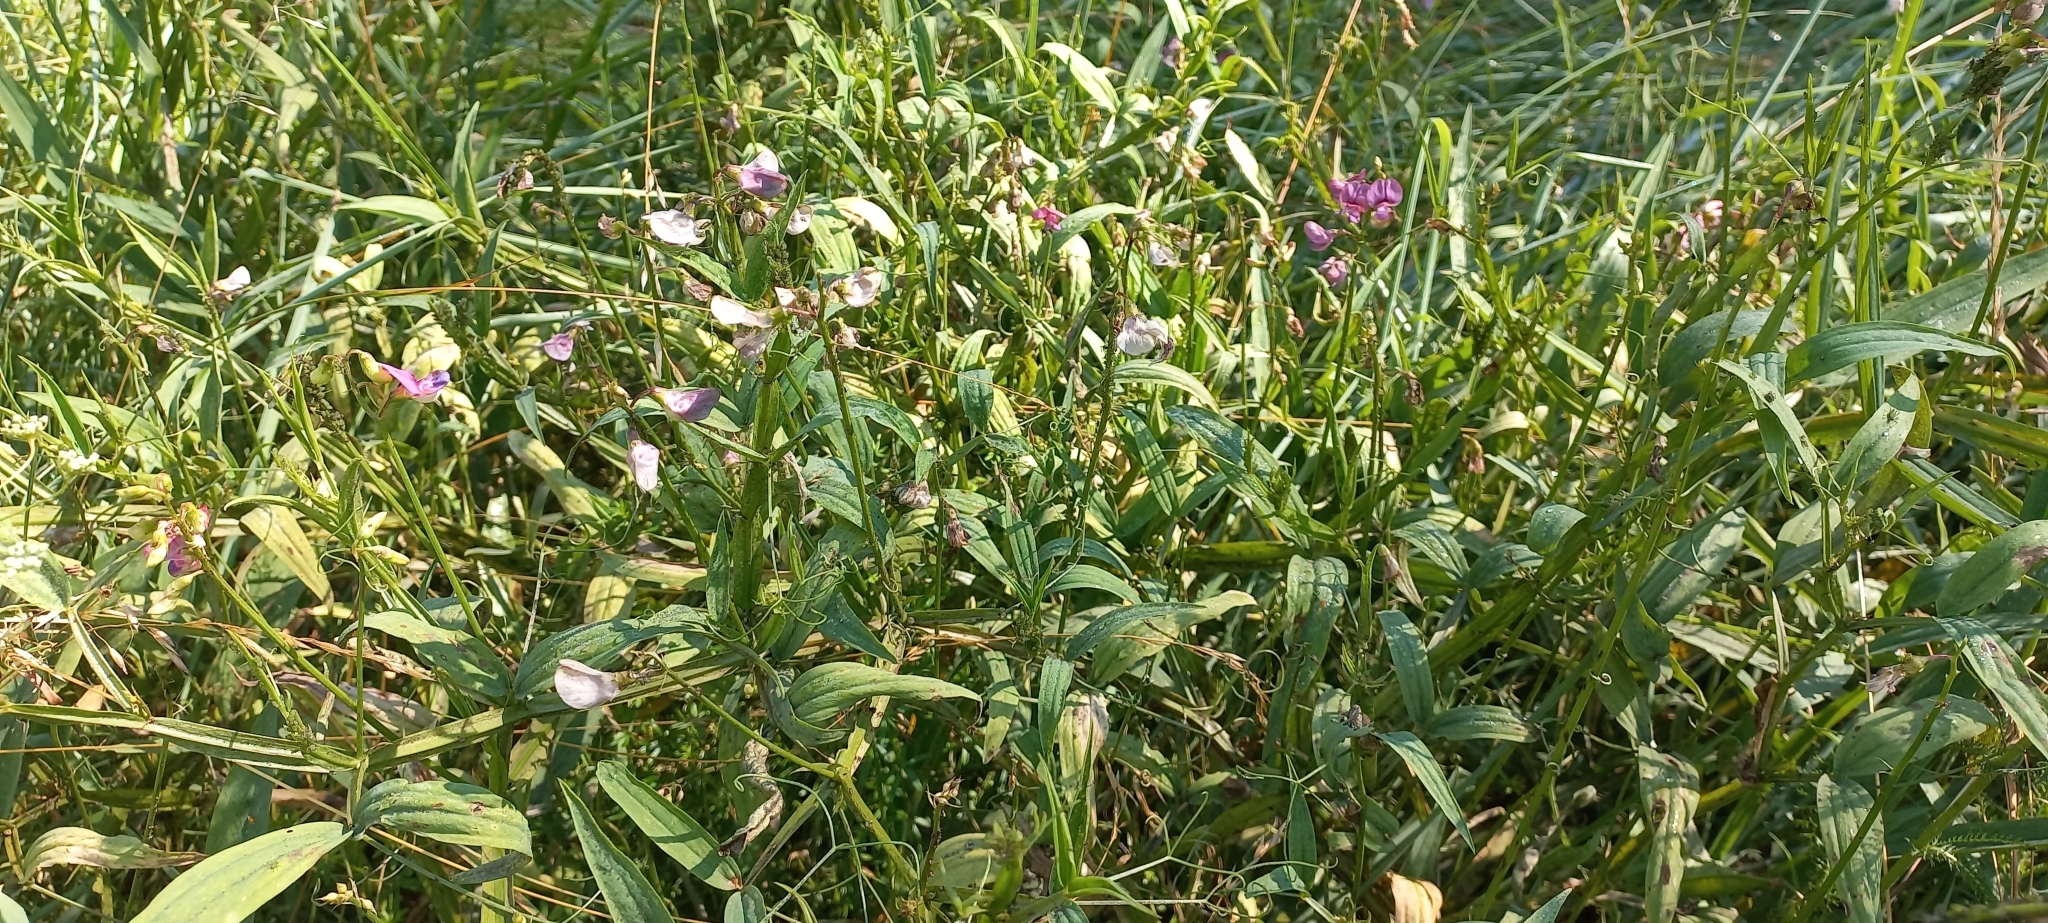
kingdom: Plantae
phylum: Tracheophyta
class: Magnoliopsida
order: Fabales
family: Fabaceae
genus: Lathyrus
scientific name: Lathyrus sylvestris
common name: Flat pea
